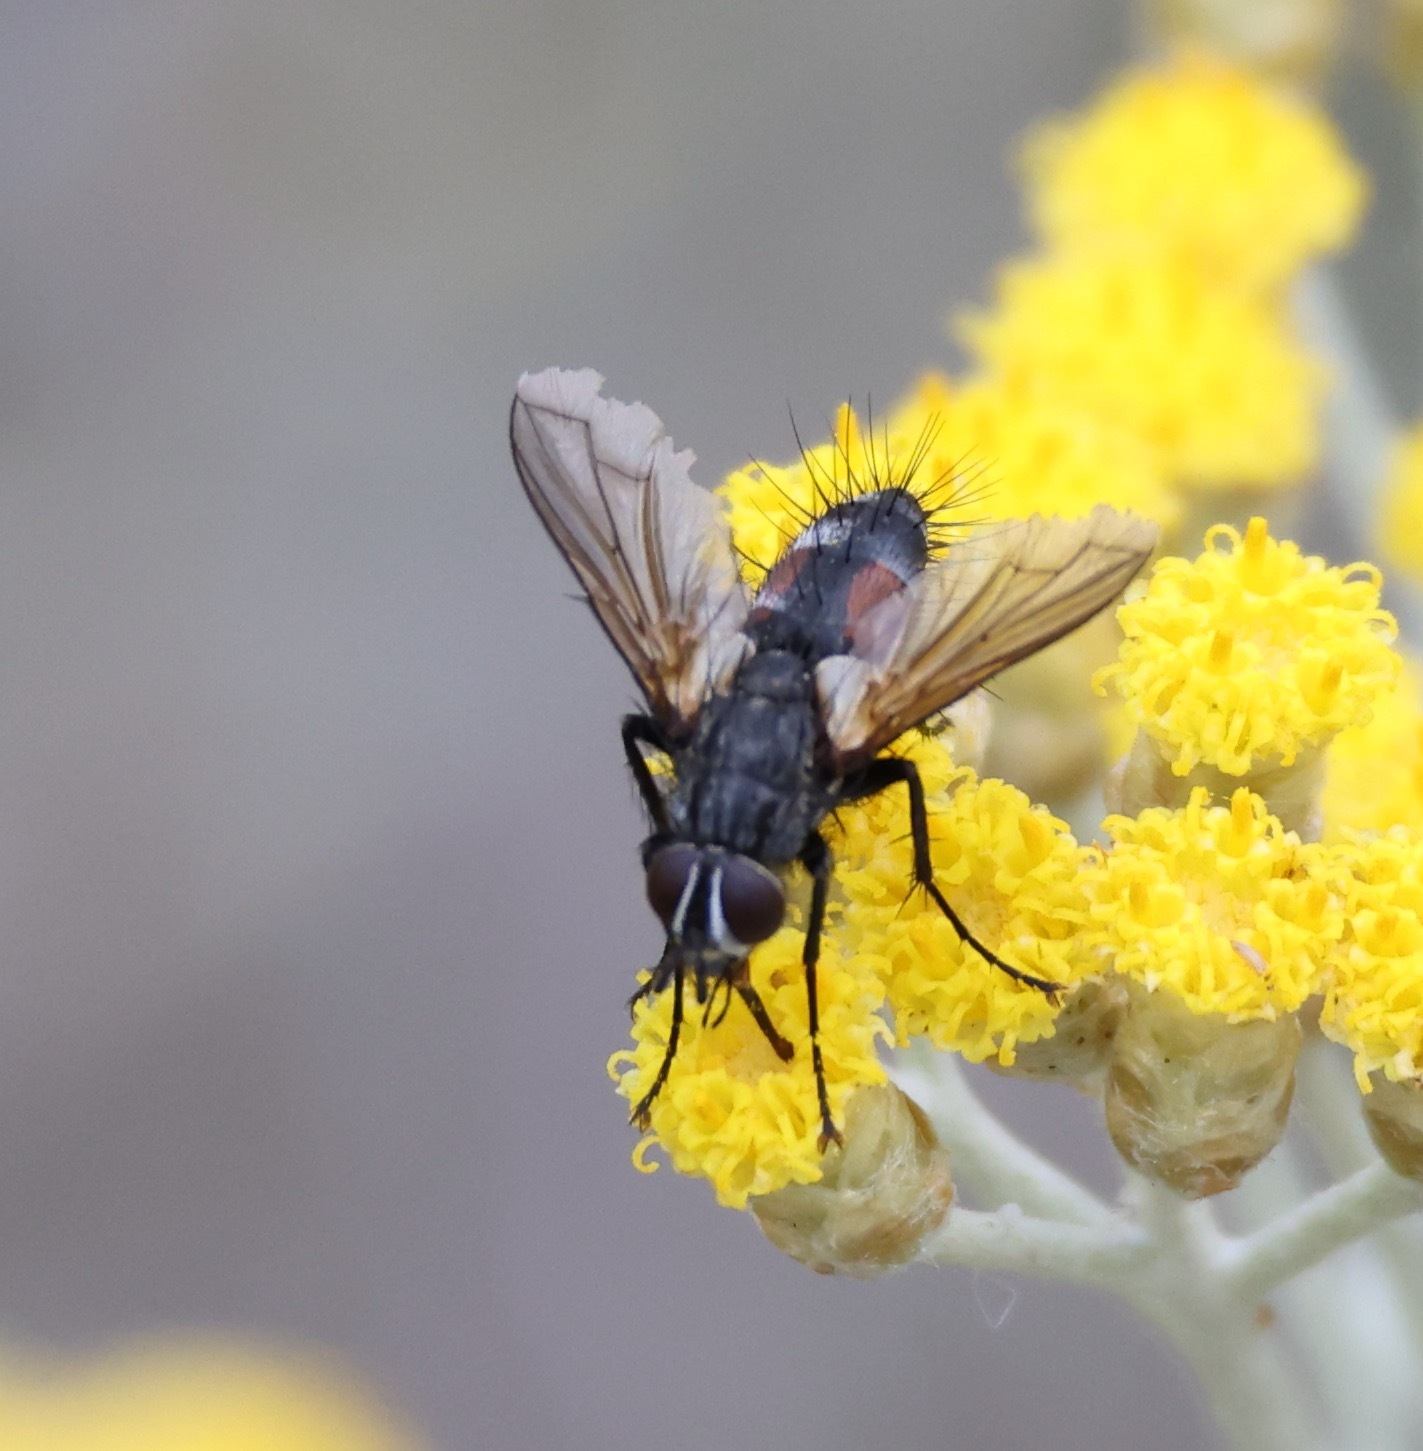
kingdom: Animalia
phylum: Arthropoda
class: Insecta
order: Diptera
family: Tachinidae
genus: Eriothrix
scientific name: Eriothrix rufomaculatus
